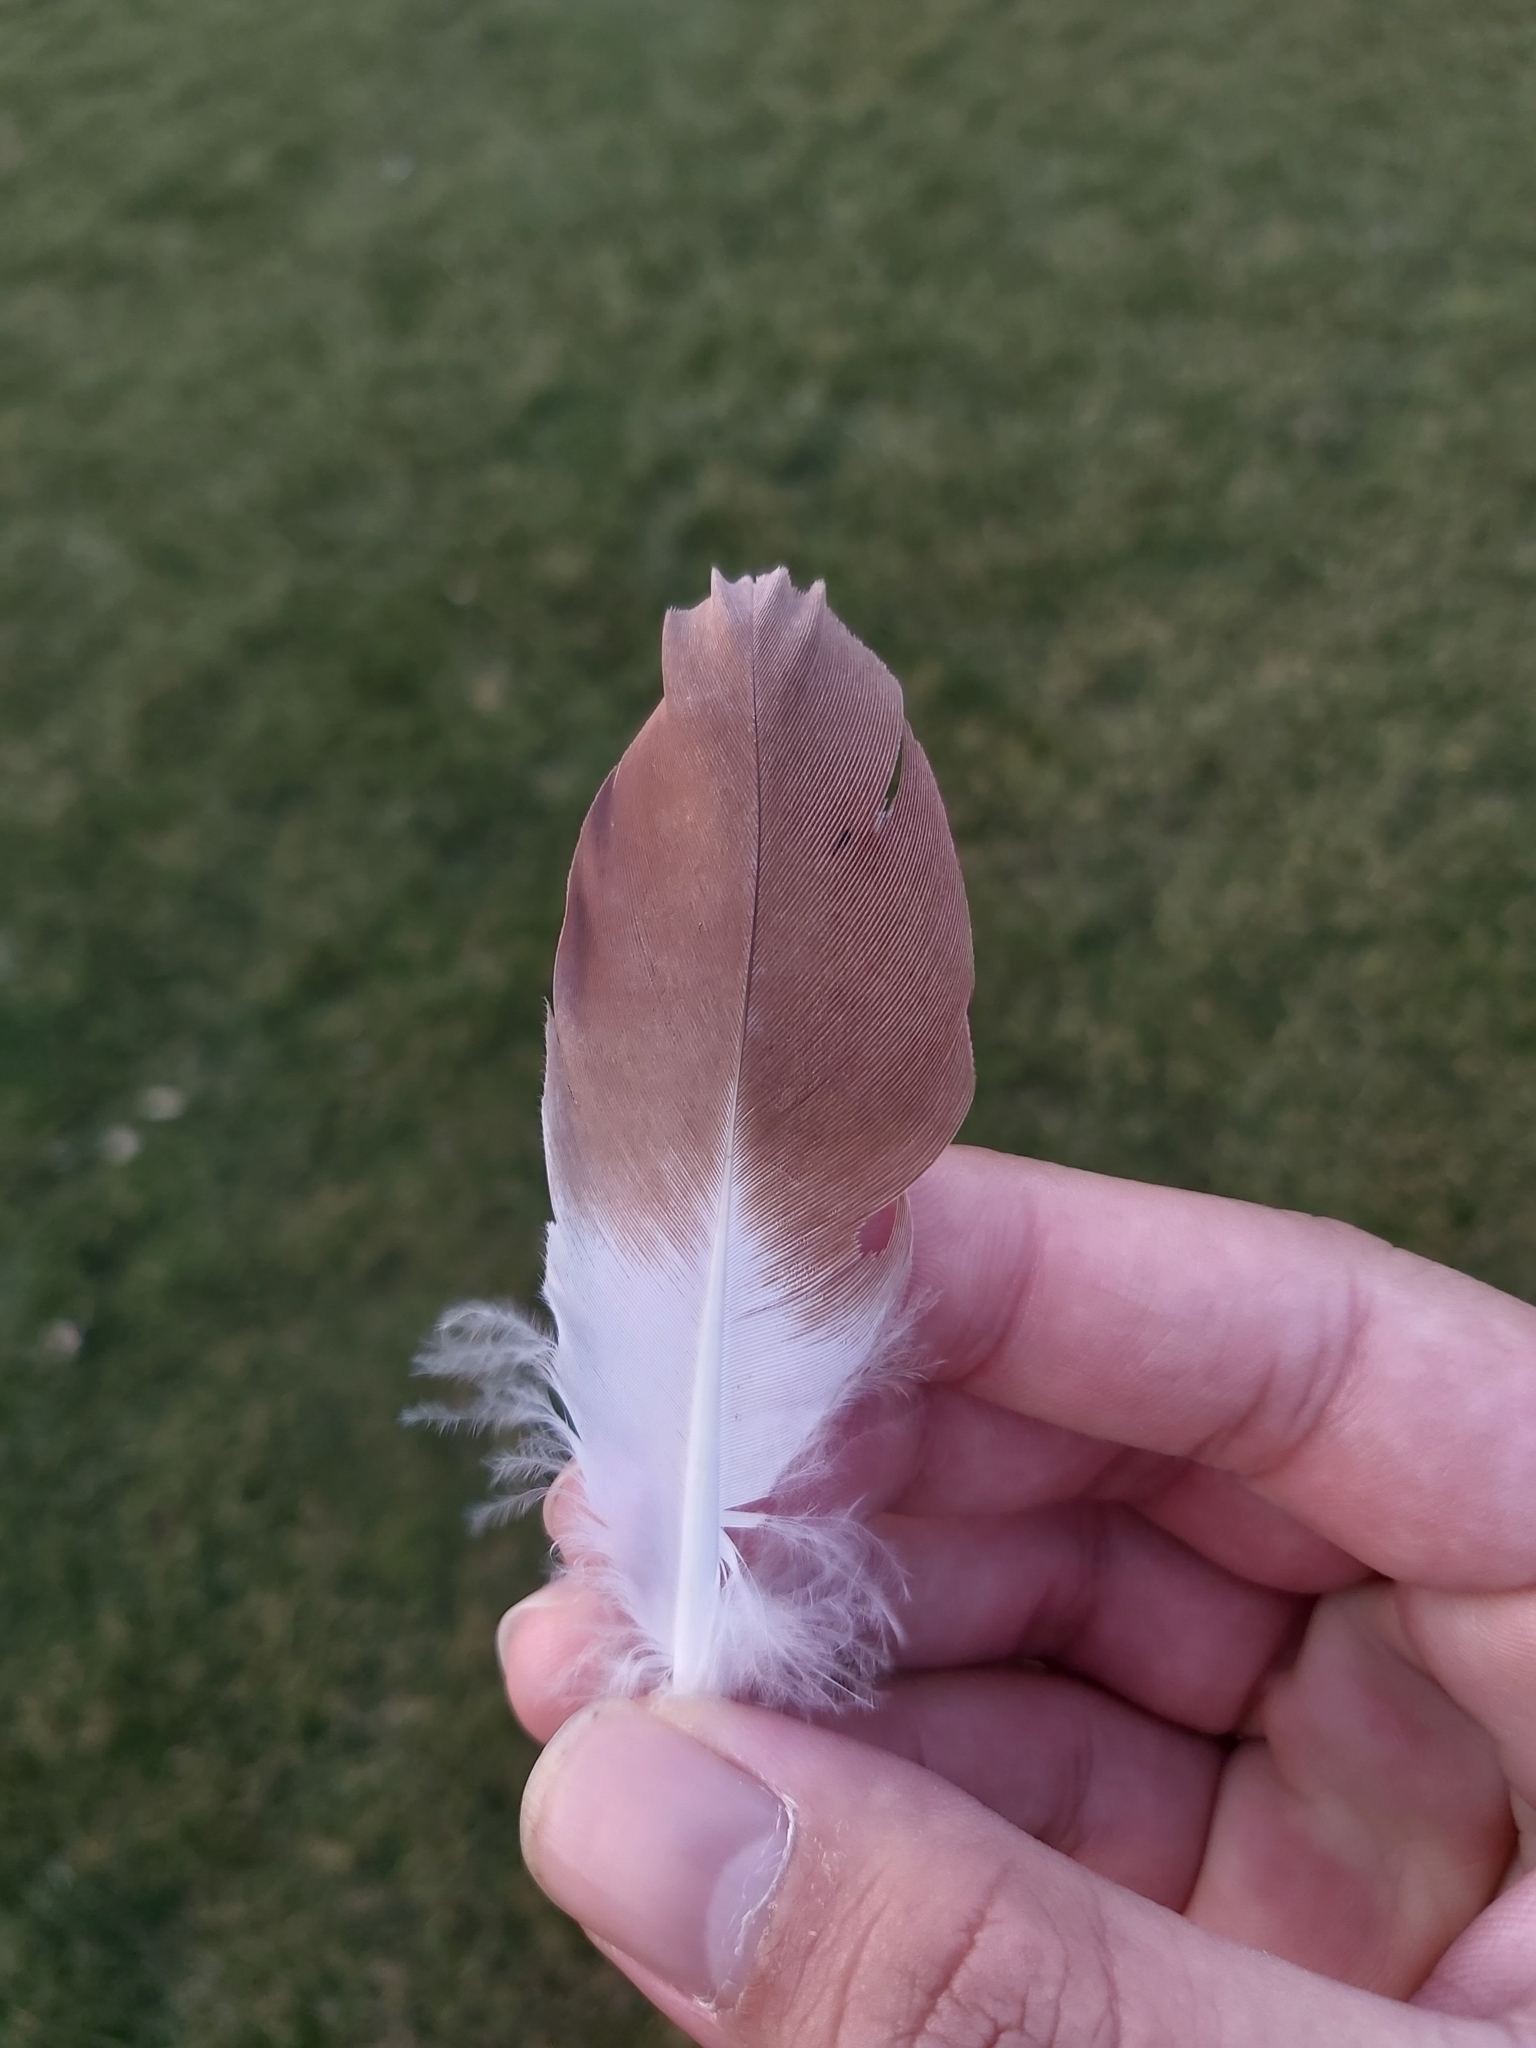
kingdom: Animalia
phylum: Chordata
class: Aves
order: Columbiformes
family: Columbidae
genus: Columba
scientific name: Columba livia
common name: Rock pigeon
